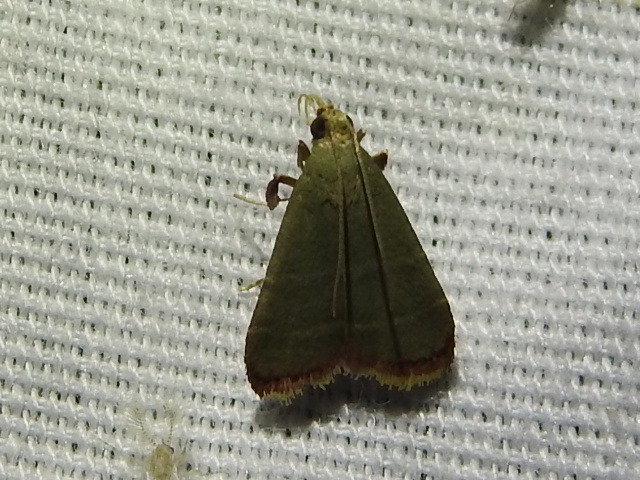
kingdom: Animalia
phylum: Arthropoda
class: Insecta
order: Lepidoptera
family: Pyralidae
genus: Arta
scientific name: Arta olivalis
